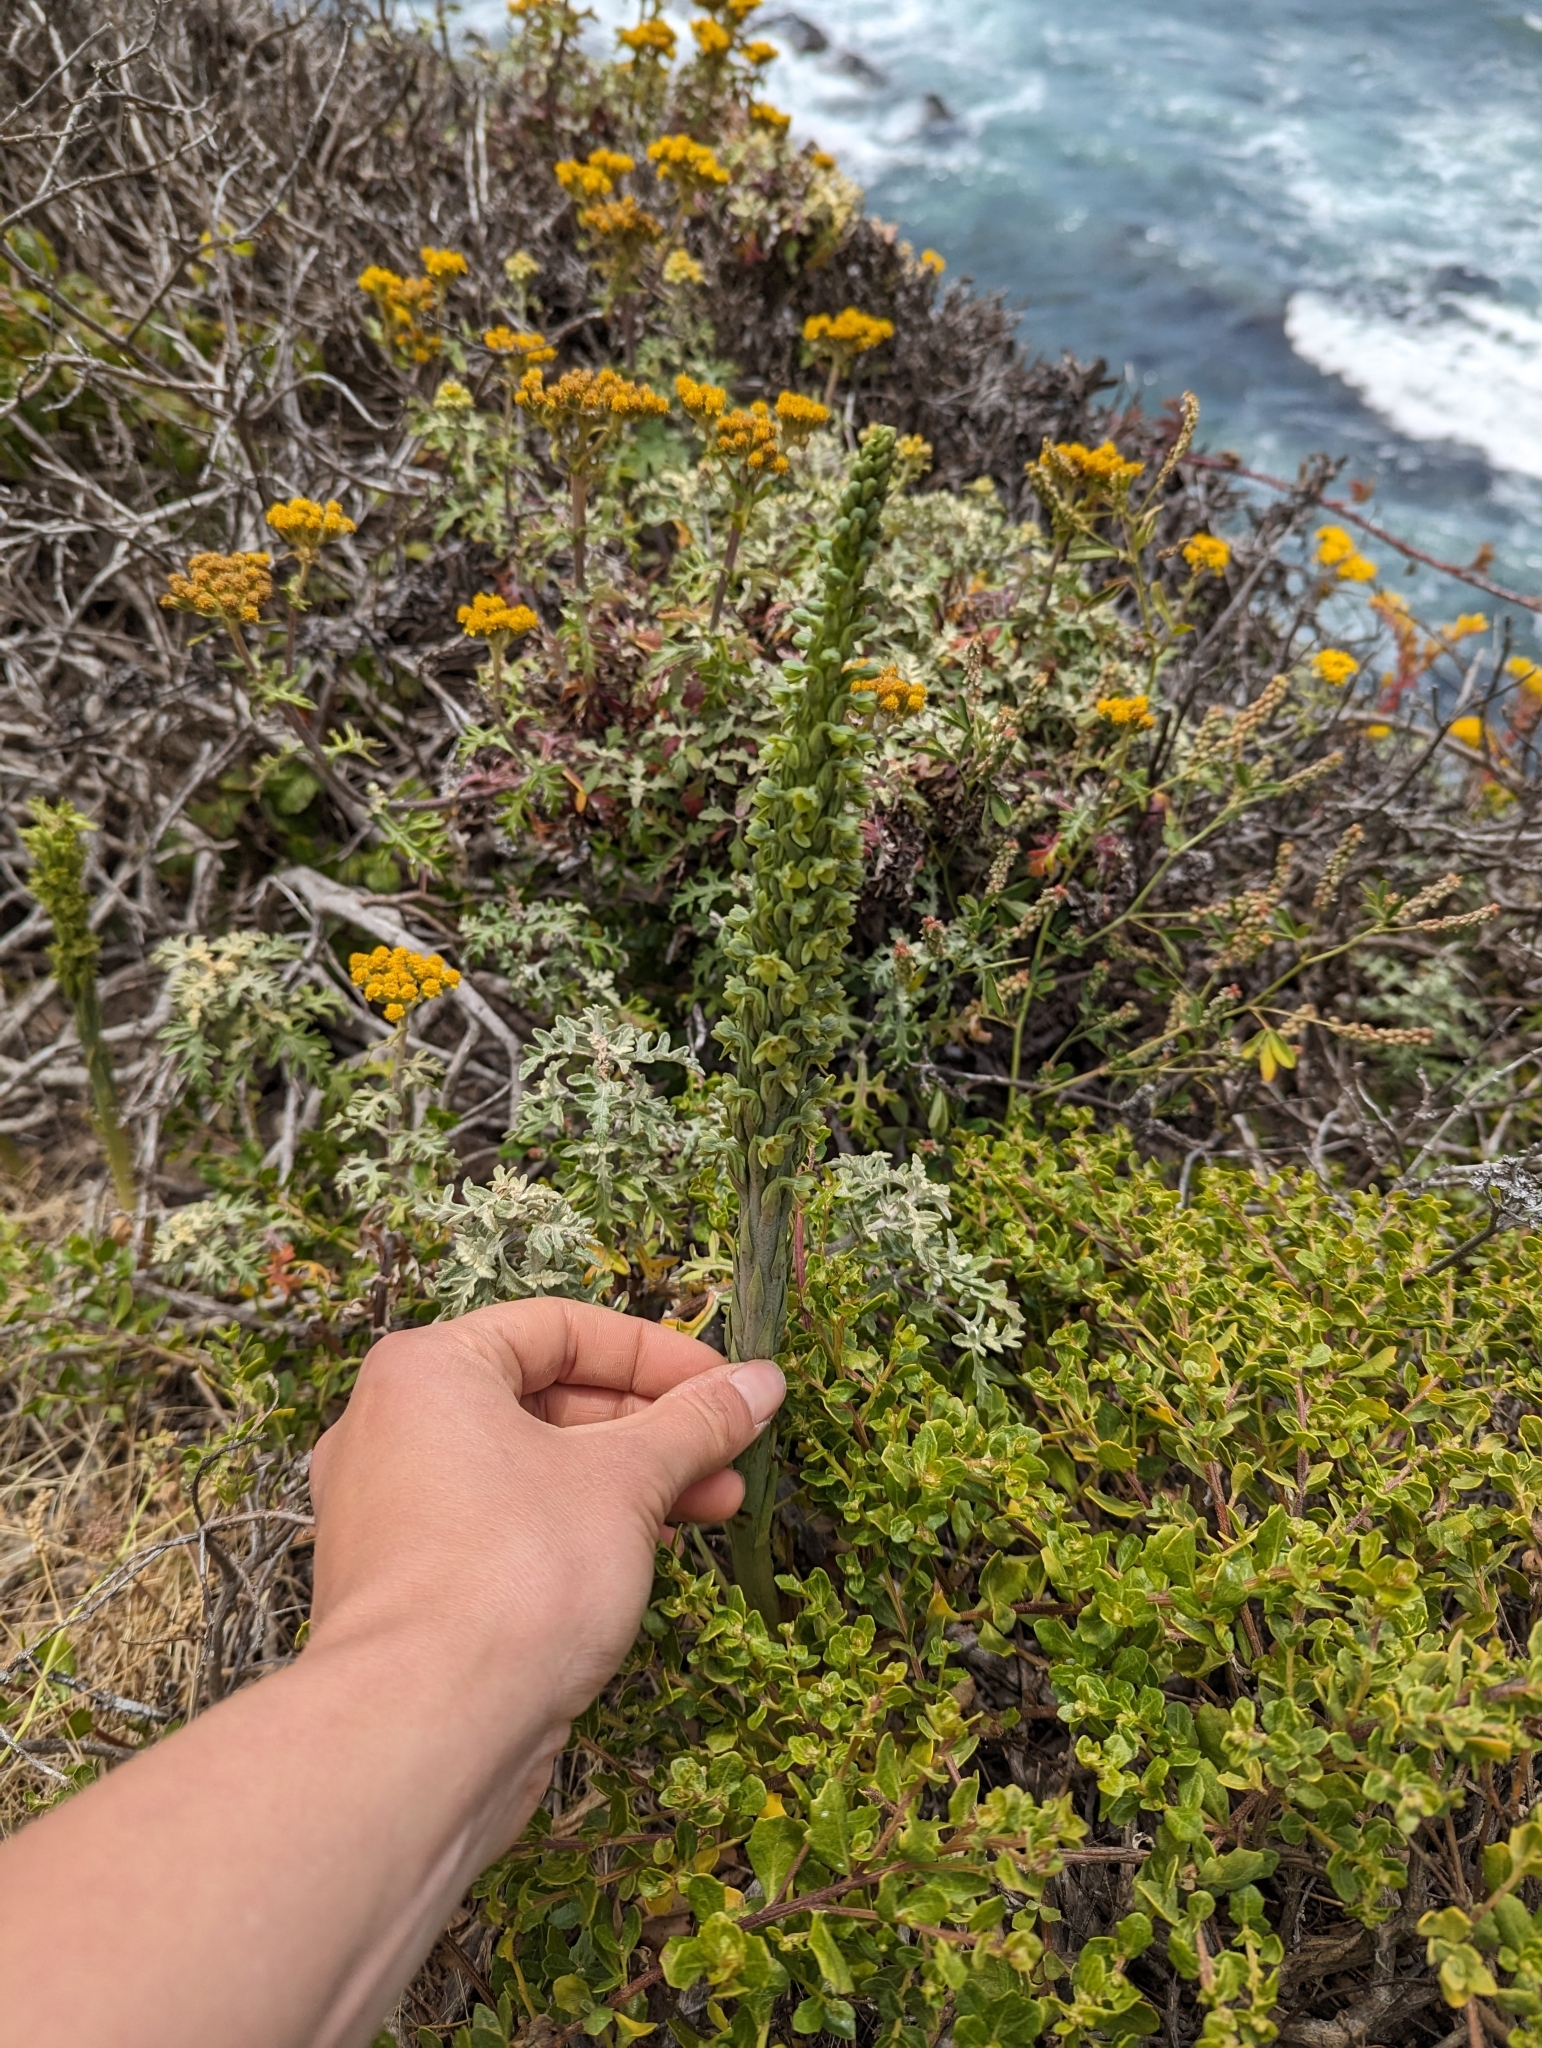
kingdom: Plantae
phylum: Tracheophyta
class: Liliopsida
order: Asparagales
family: Orchidaceae
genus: Platanthera
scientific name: Platanthera michaelii
